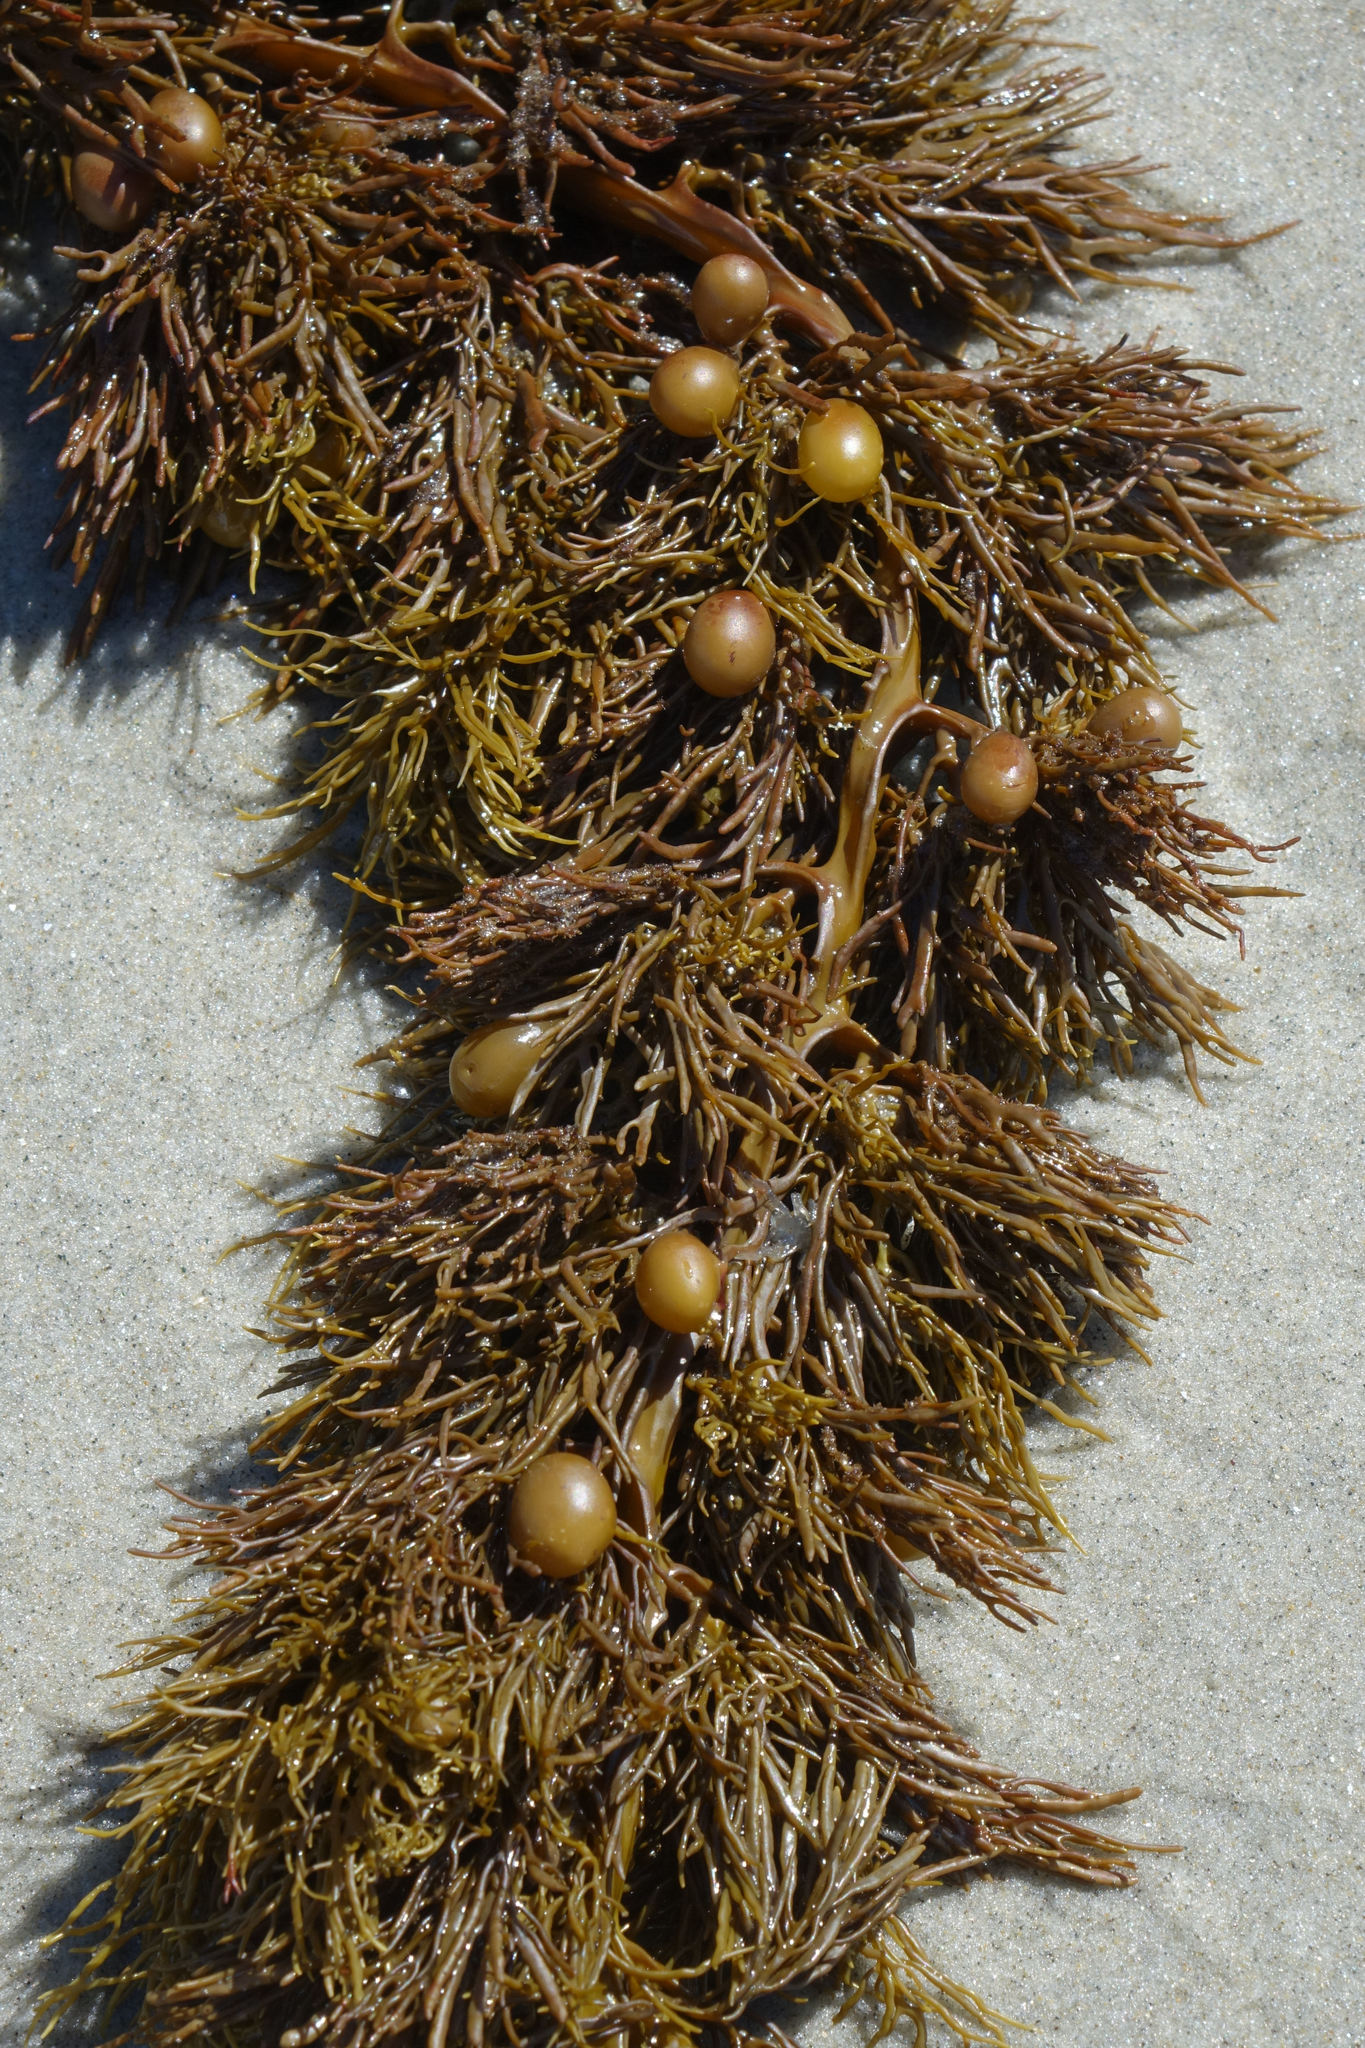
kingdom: Chromista
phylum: Ochrophyta
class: Phaeophyceae
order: Fucales
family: Sargassaceae
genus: Cystophora
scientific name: Cystophora retroflexa
